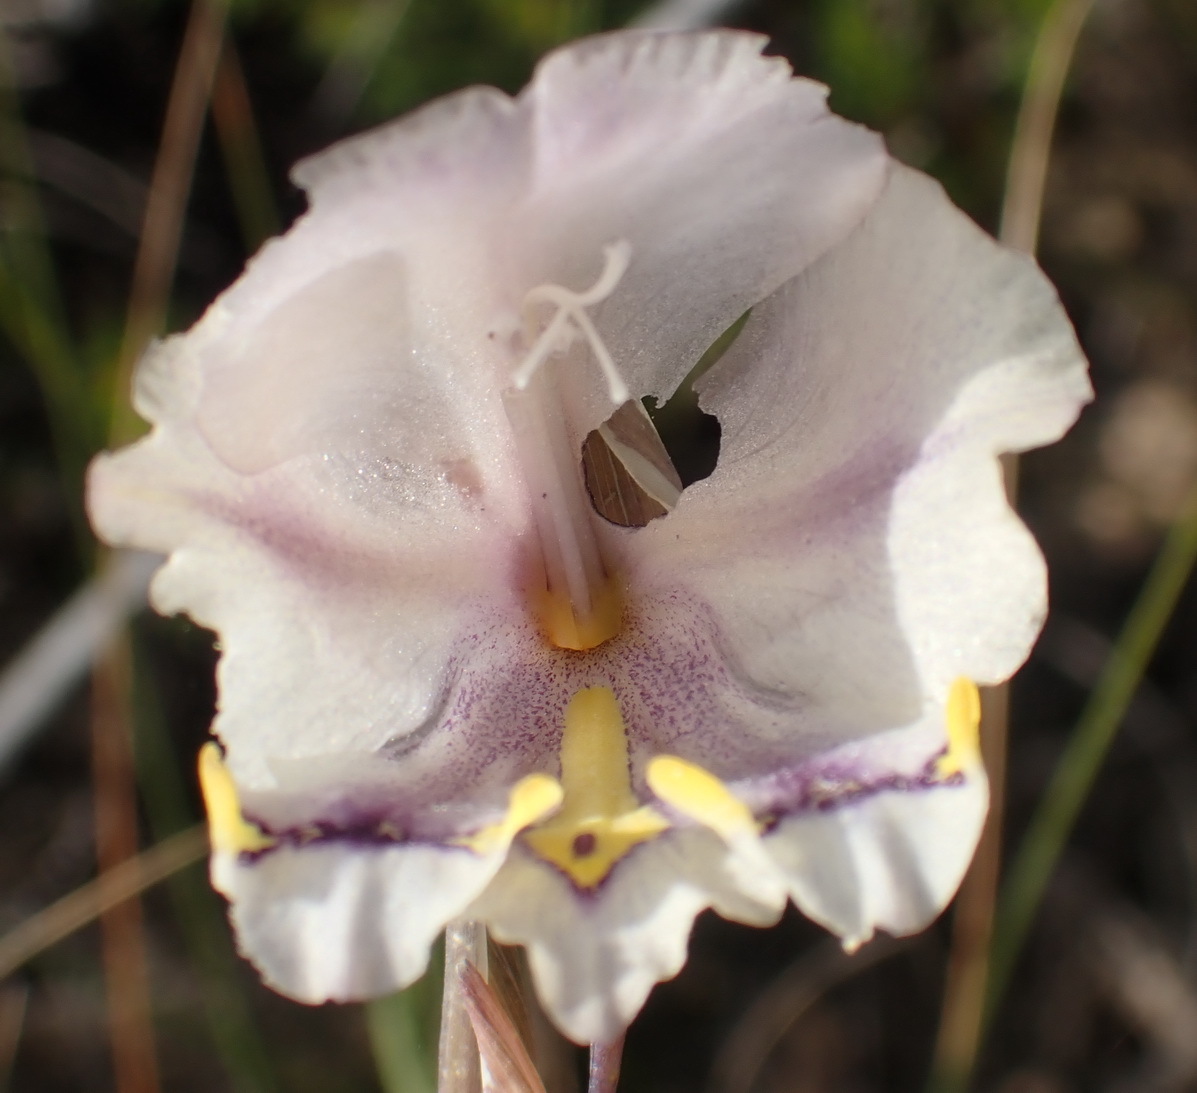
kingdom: Plantae
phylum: Tracheophyta
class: Liliopsida
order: Asparagales
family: Iridaceae
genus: Gladiolus
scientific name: Gladiolus patersoniae
